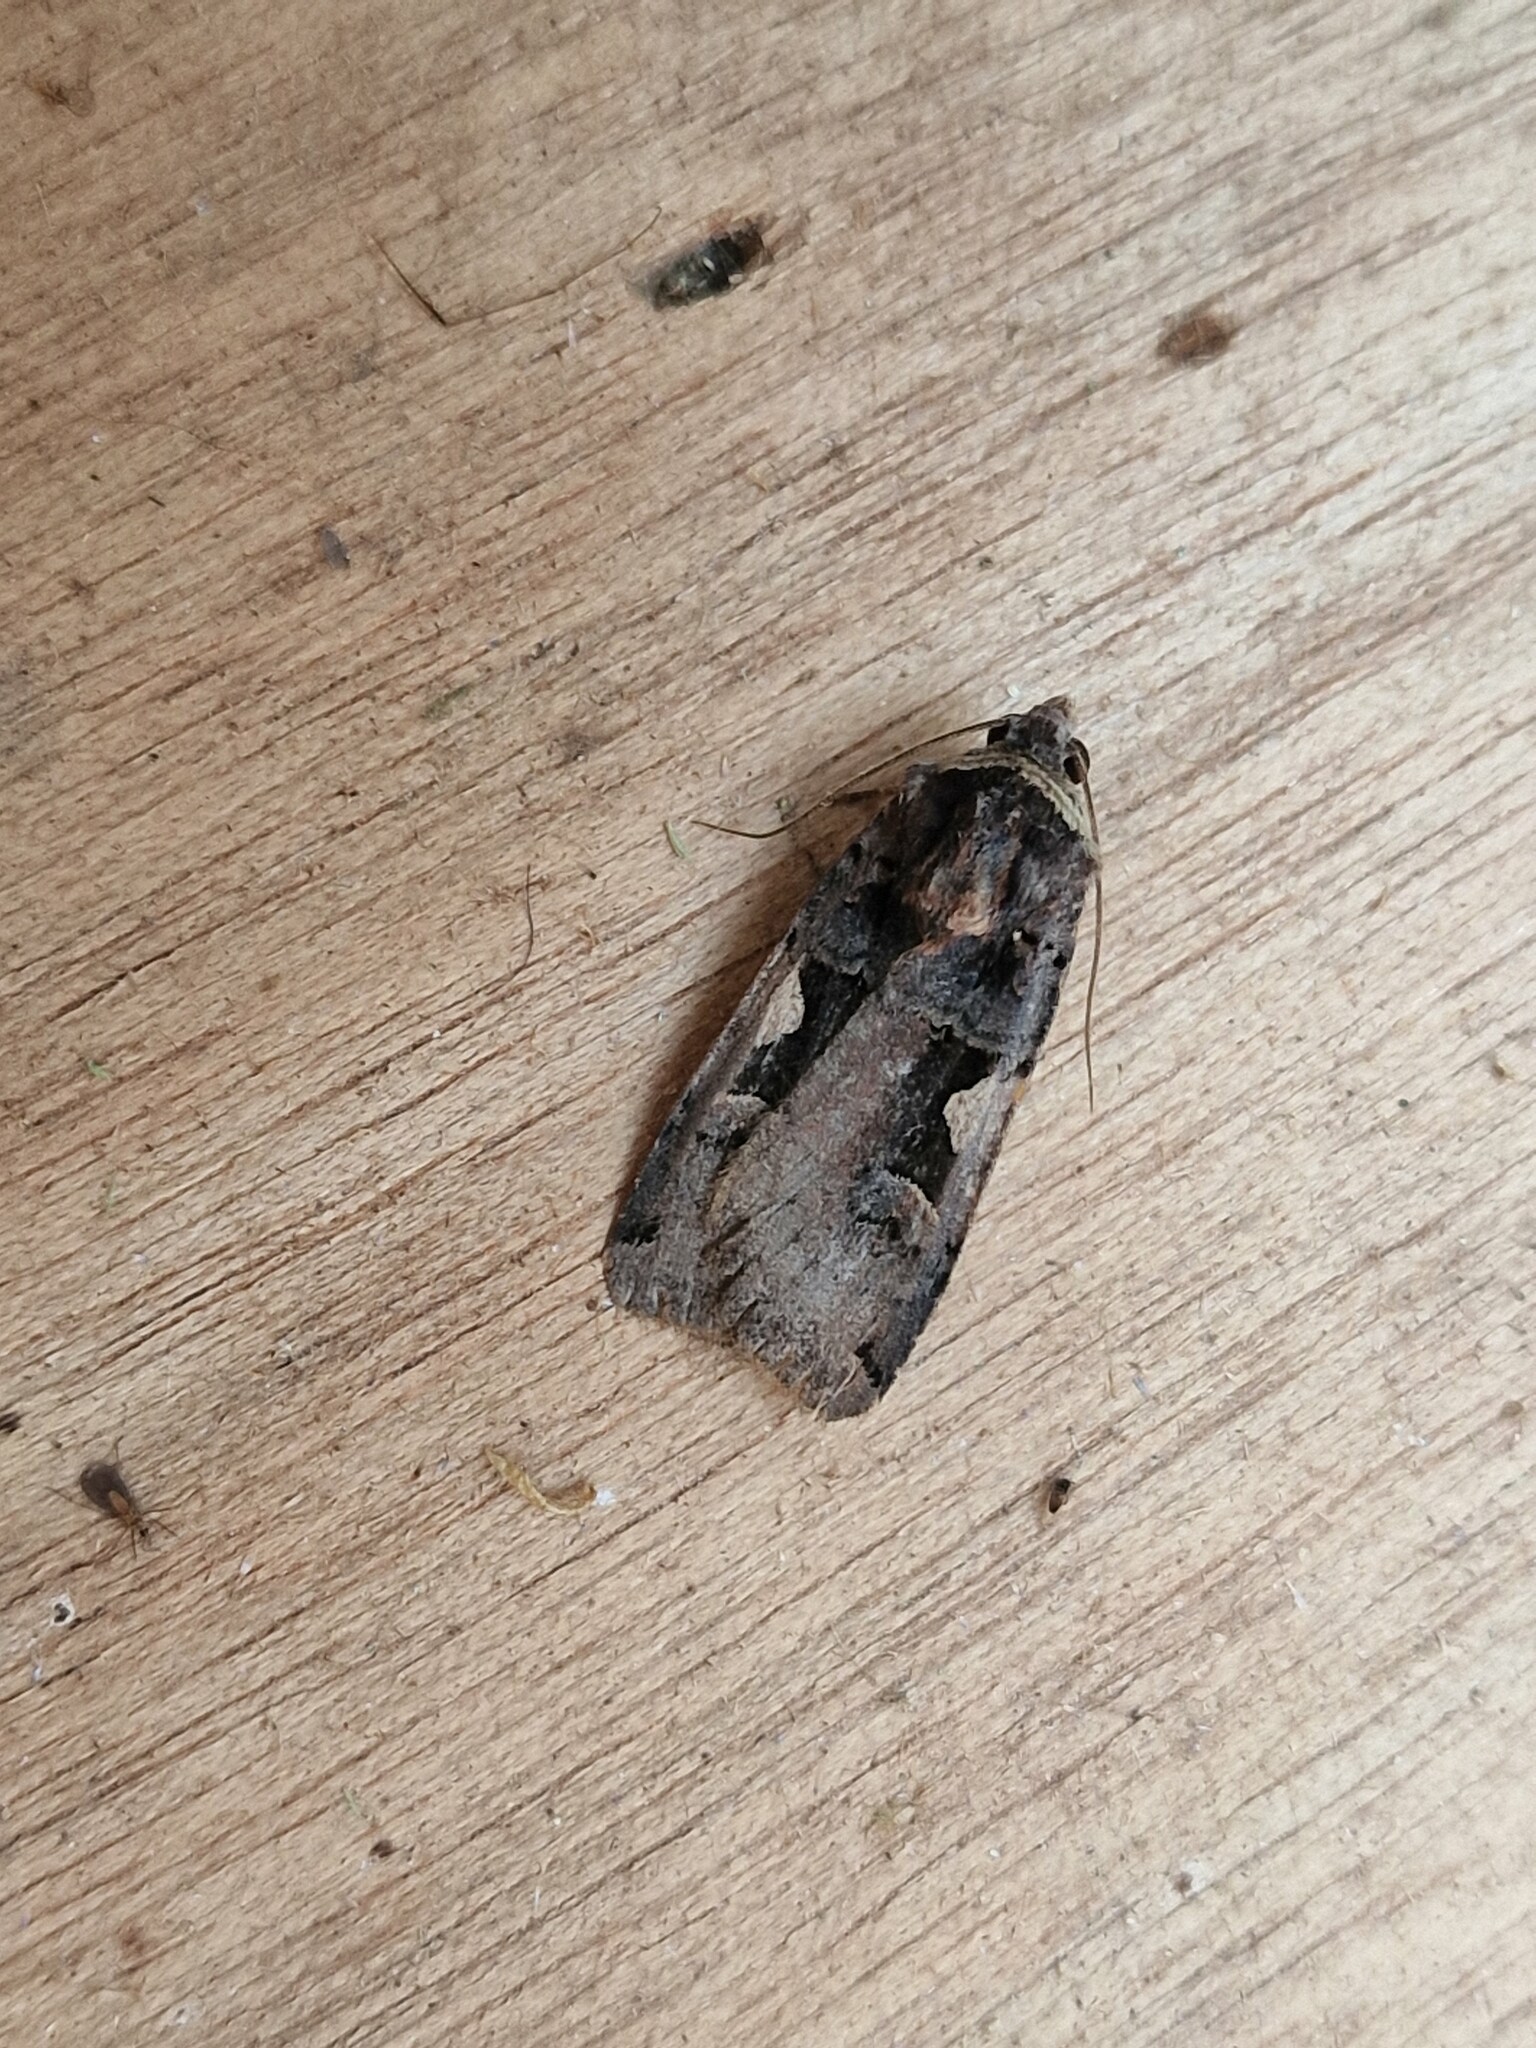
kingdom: Animalia
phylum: Arthropoda
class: Insecta
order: Lepidoptera
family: Noctuidae
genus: Xestia
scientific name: Xestia c-nigrum
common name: Setaceous hebrew character
